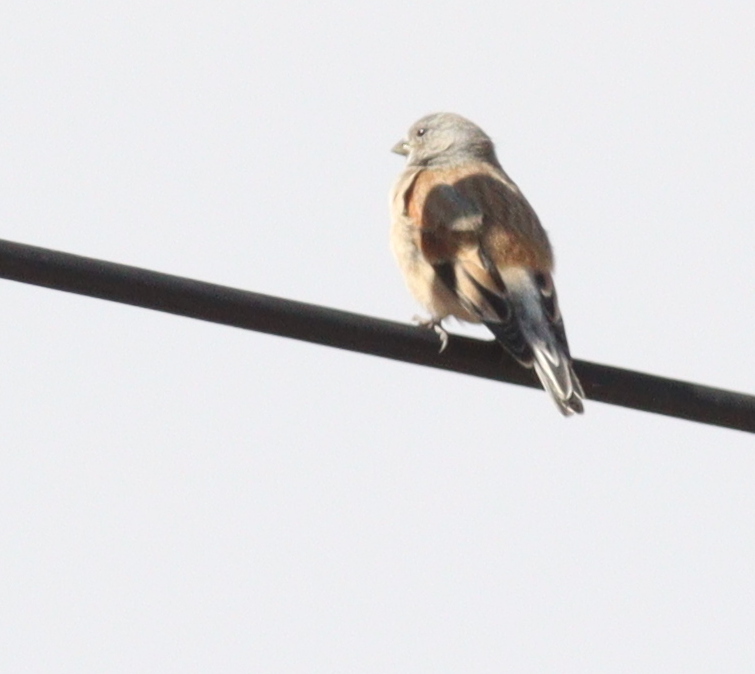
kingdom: Animalia
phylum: Chordata
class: Aves
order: Passeriformes
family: Fringillidae
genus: Linaria
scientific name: Linaria yemenensis
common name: Yemen linnet
